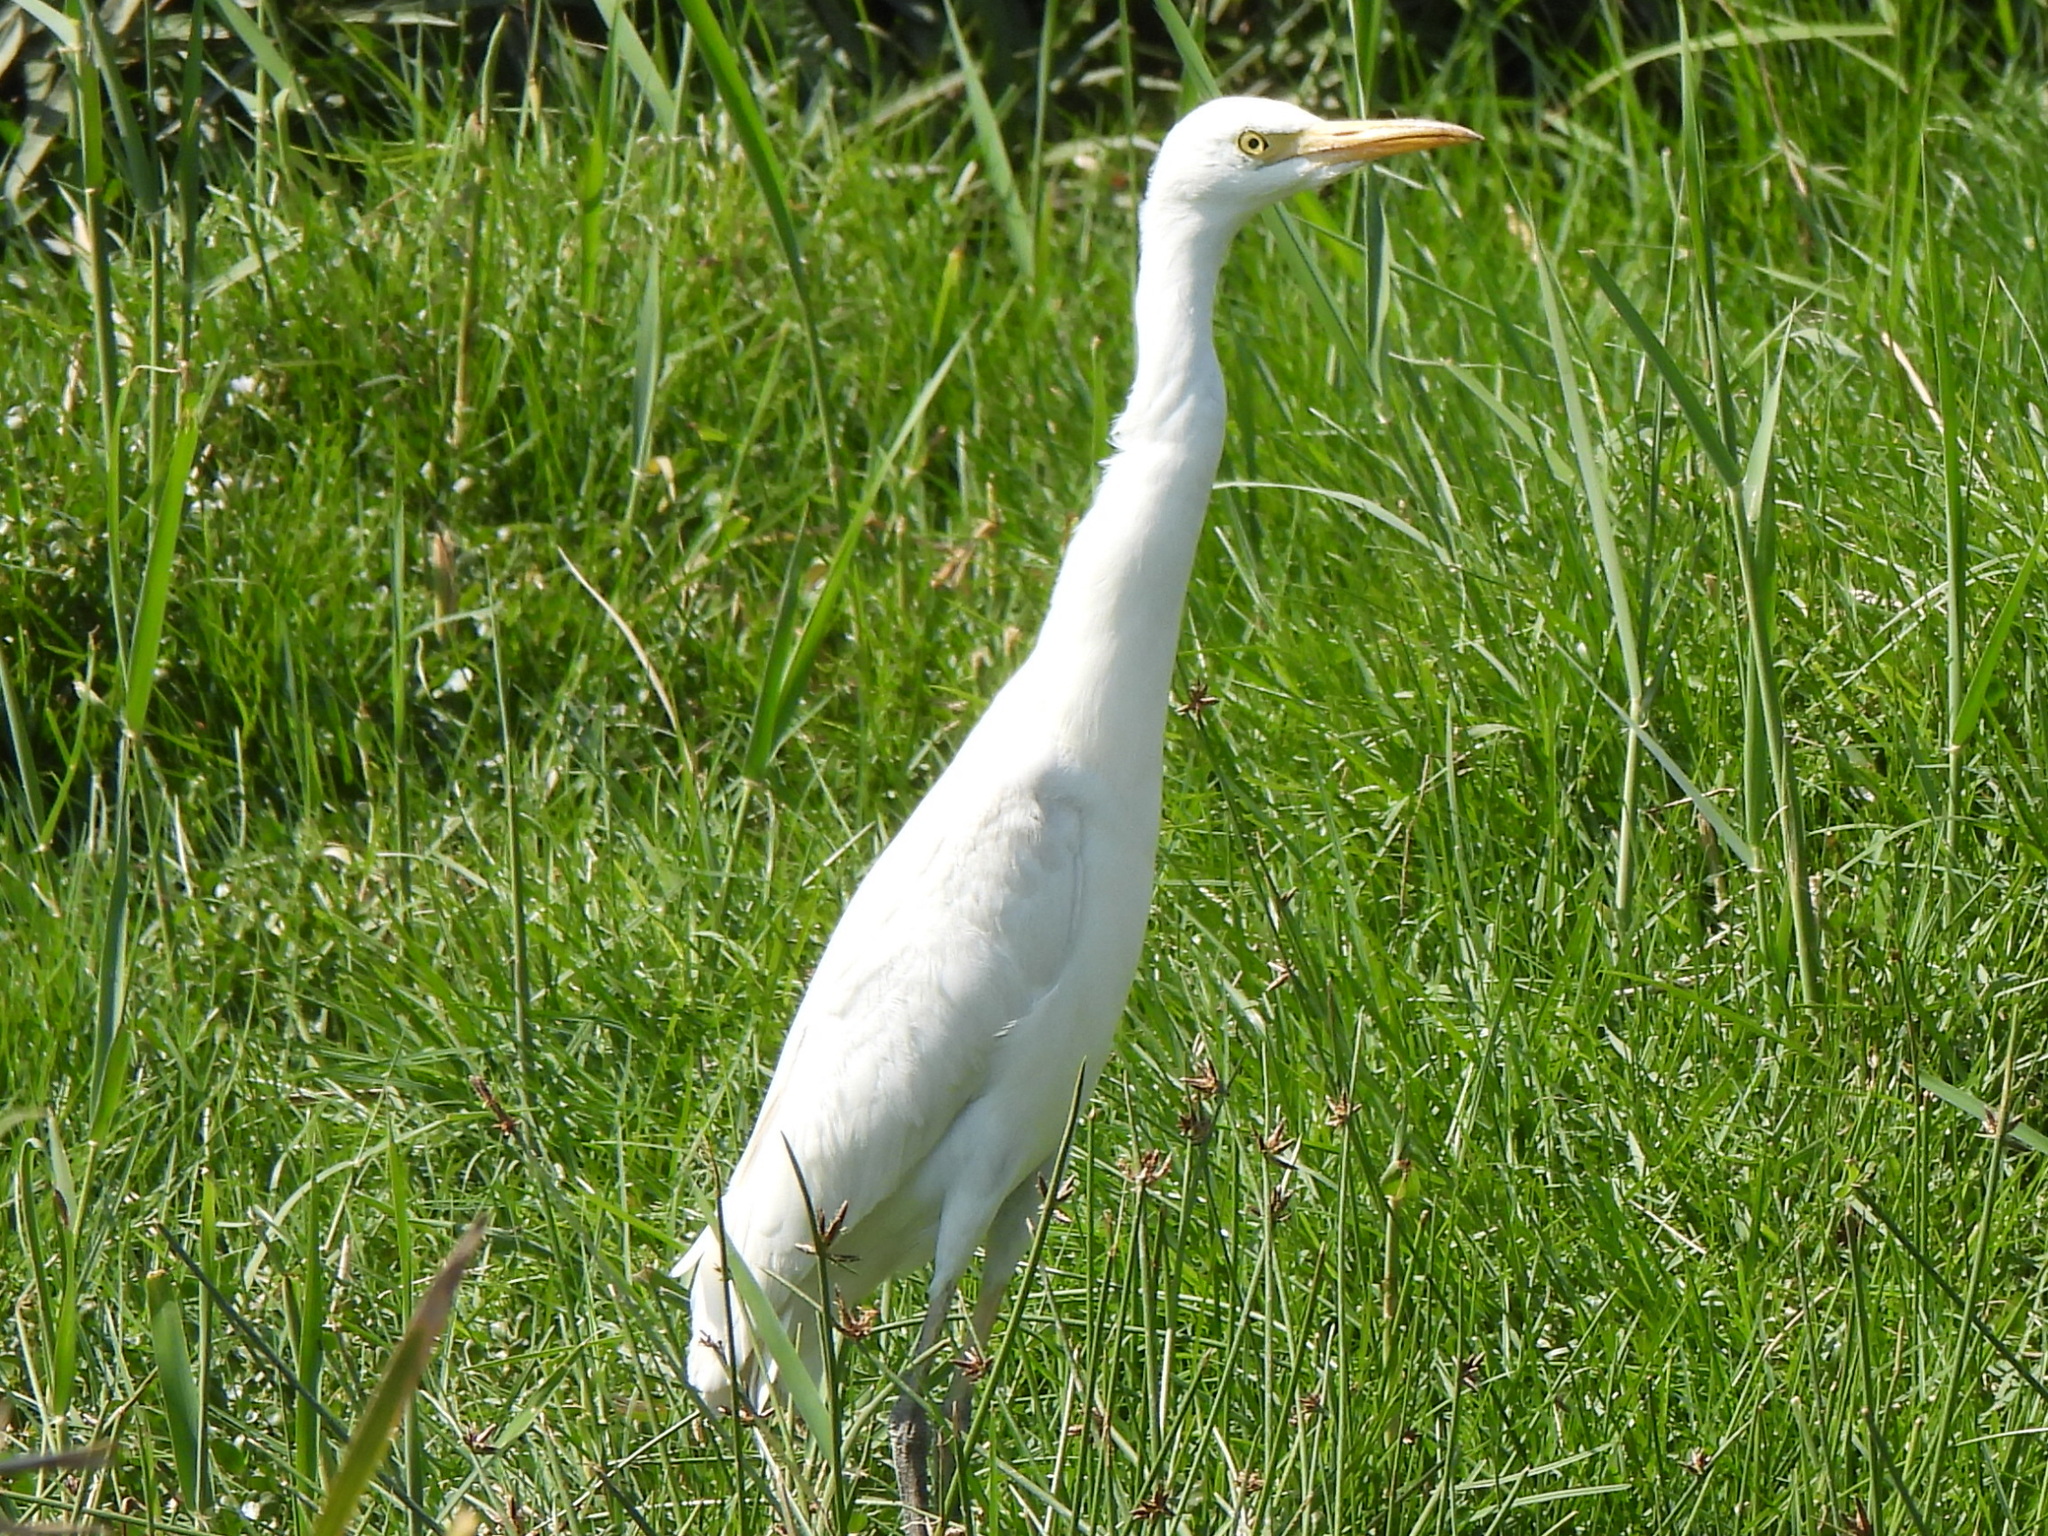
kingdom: Animalia
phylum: Chordata
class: Aves
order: Pelecaniformes
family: Ardeidae
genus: Bubulcus
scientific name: Bubulcus ibis
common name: Cattle egret
